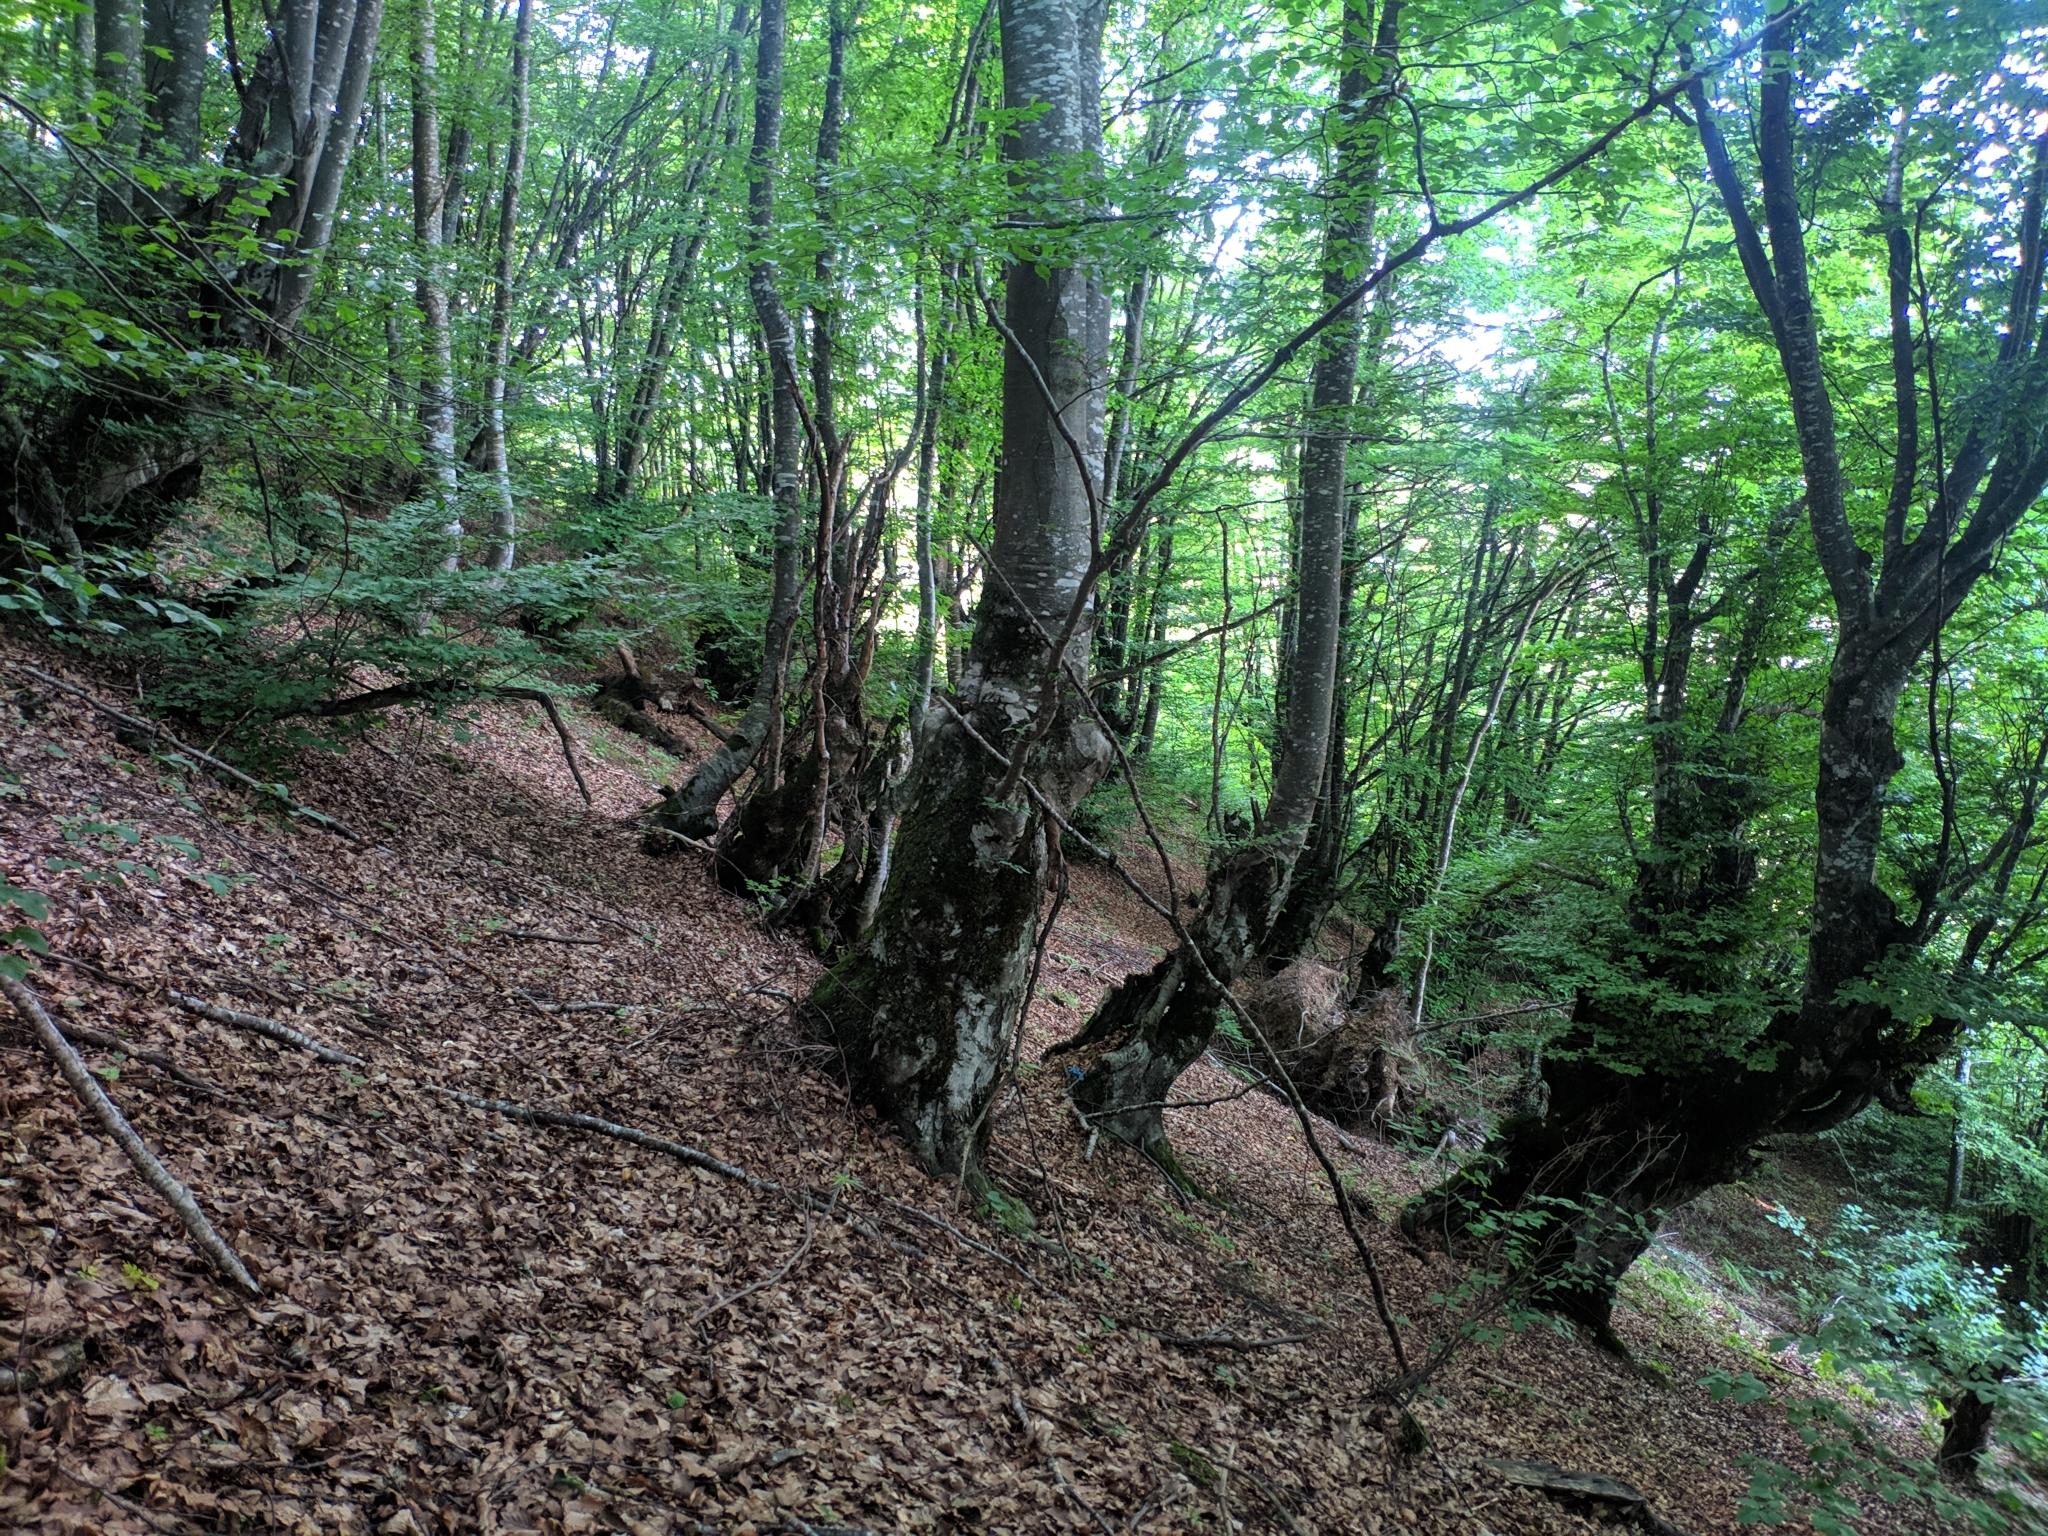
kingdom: Plantae
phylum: Tracheophyta
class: Magnoliopsida
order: Fagales
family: Fagaceae
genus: Fagus
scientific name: Fagus sylvatica
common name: Beech
